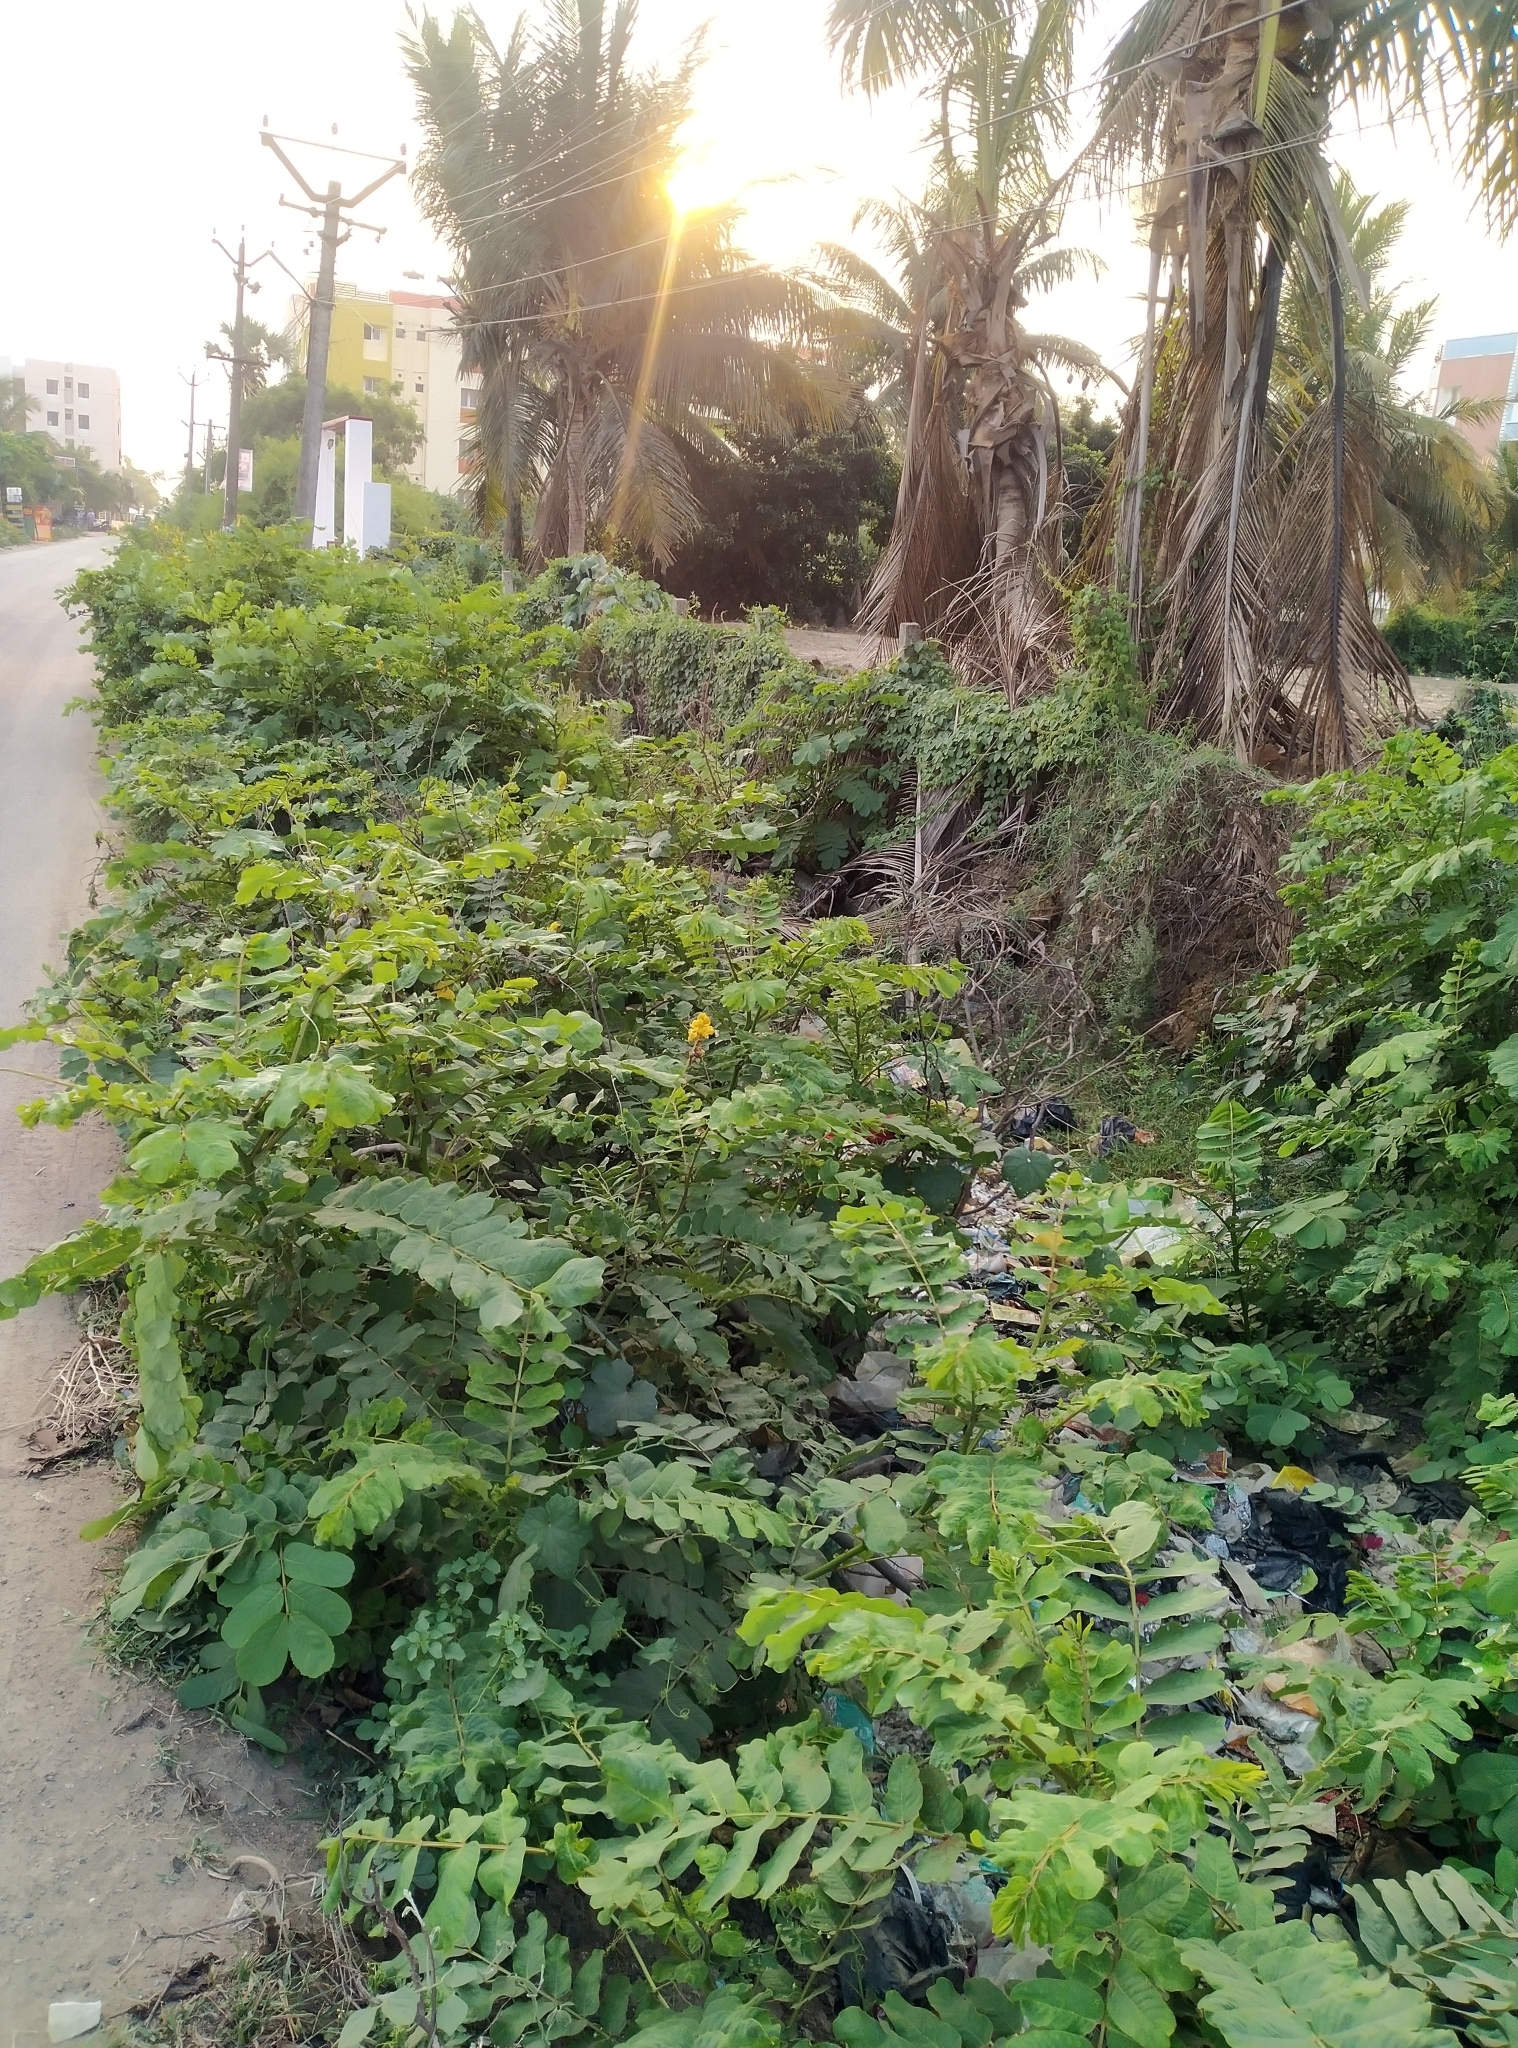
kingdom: Plantae
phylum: Tracheophyta
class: Magnoliopsida
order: Fabales
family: Fabaceae
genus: Senna
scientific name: Senna alata
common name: Emperor's candlesticks
